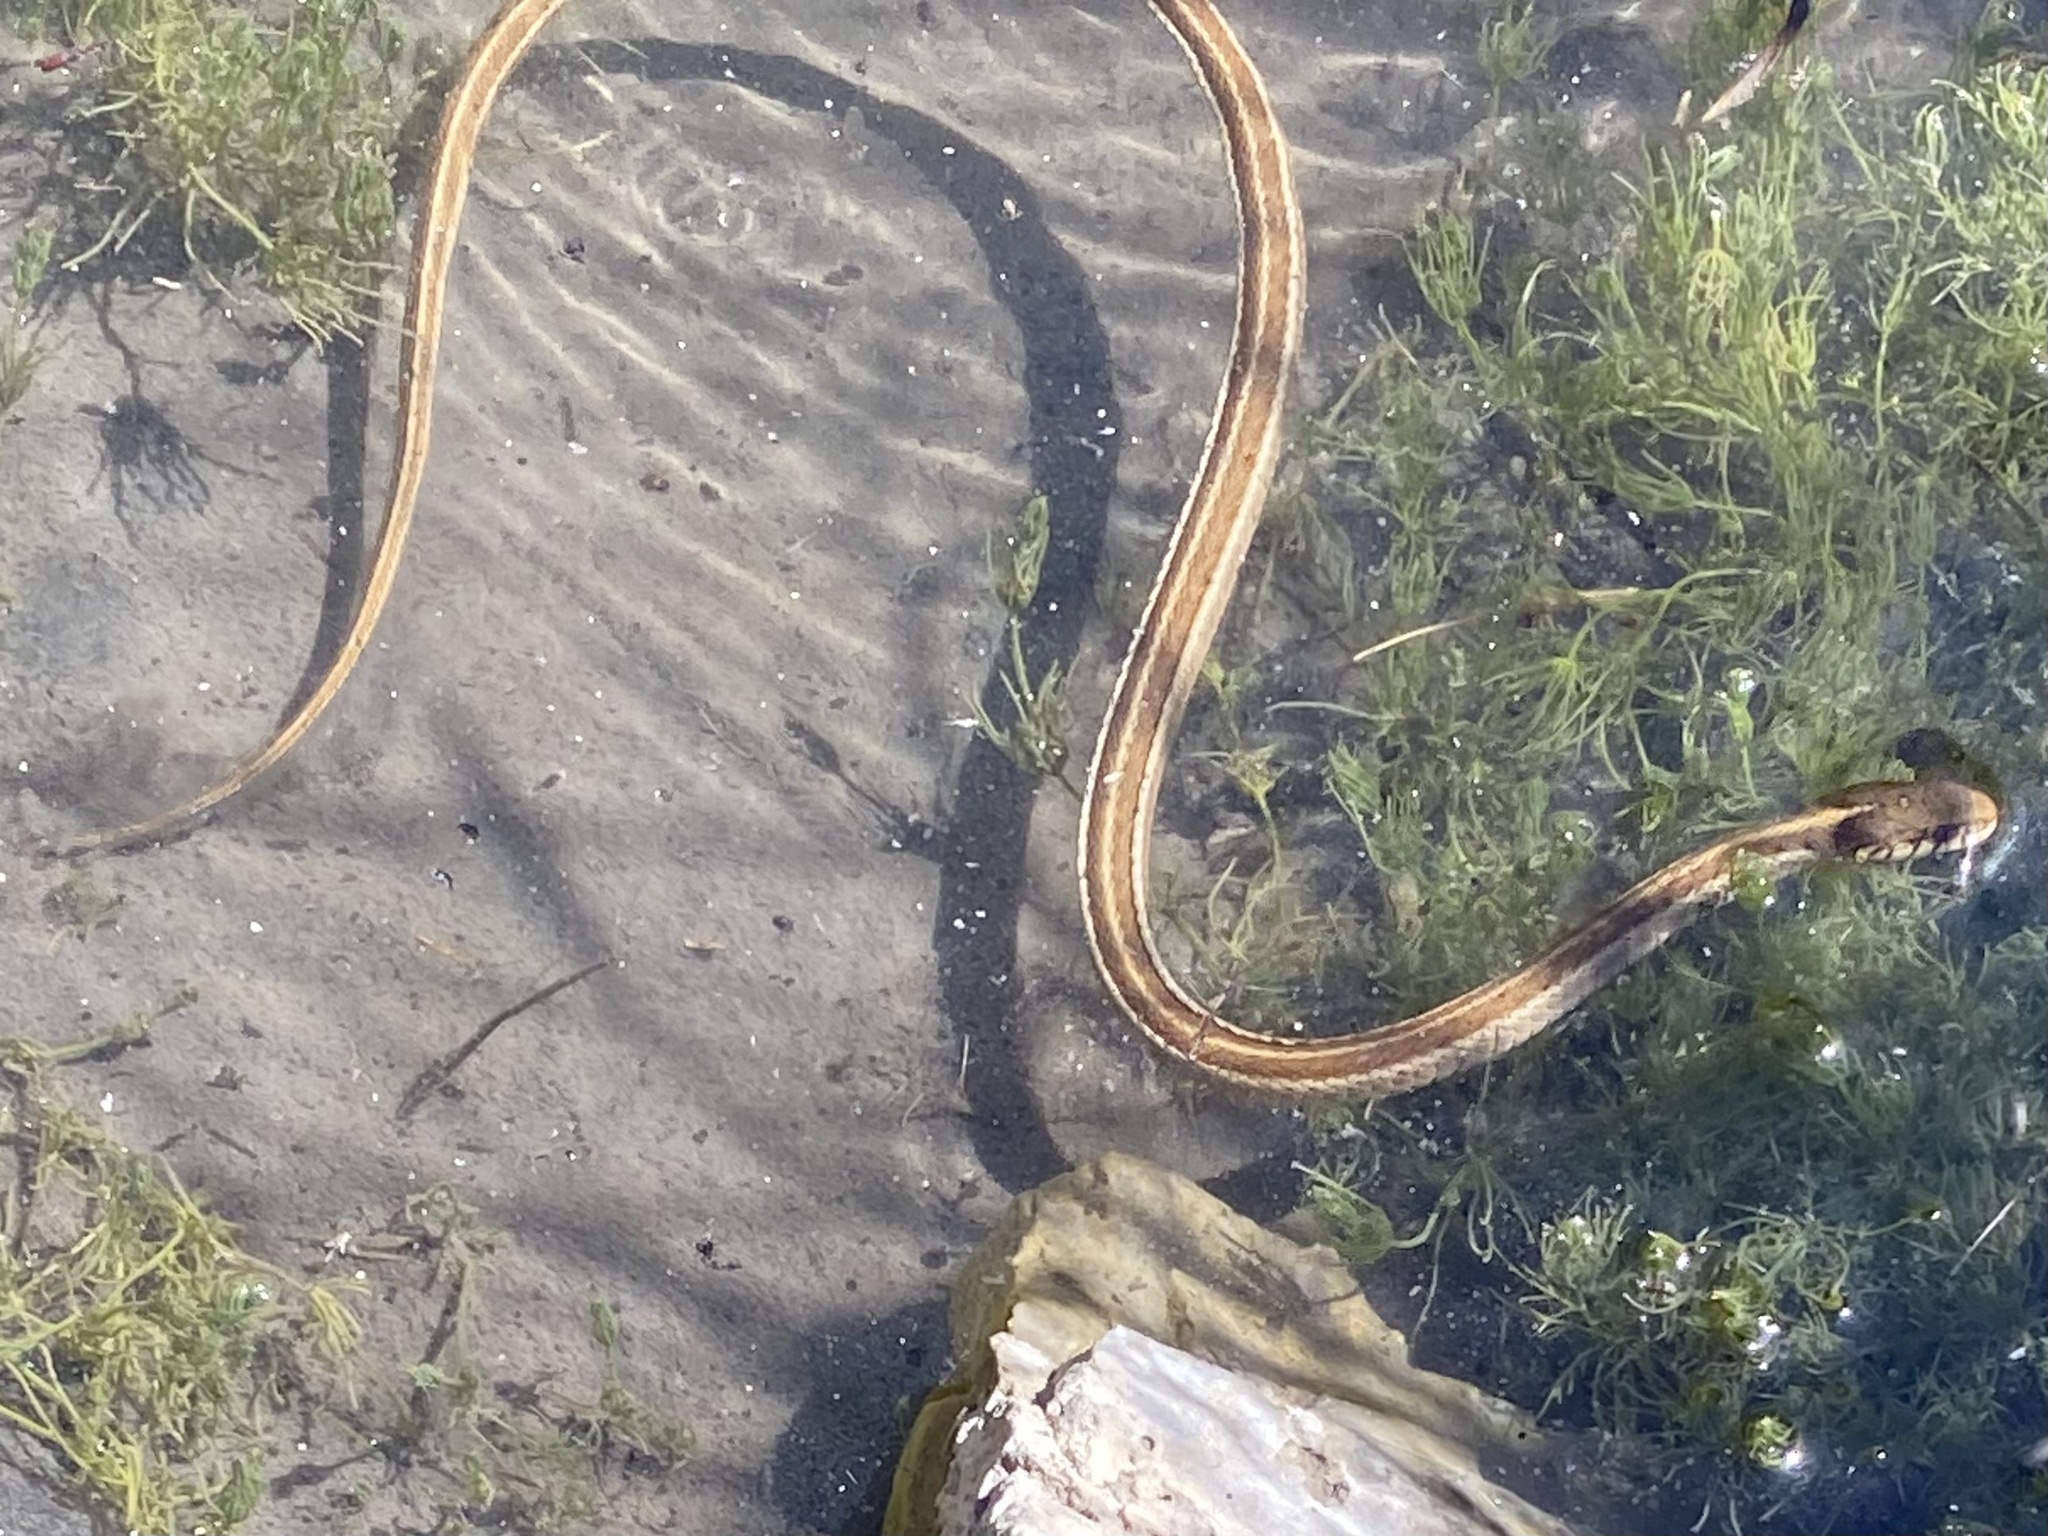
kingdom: Animalia
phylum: Chordata
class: Squamata
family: Colubridae
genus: Thamnophis
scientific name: Thamnophis sirtalis
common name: Common garter snake
